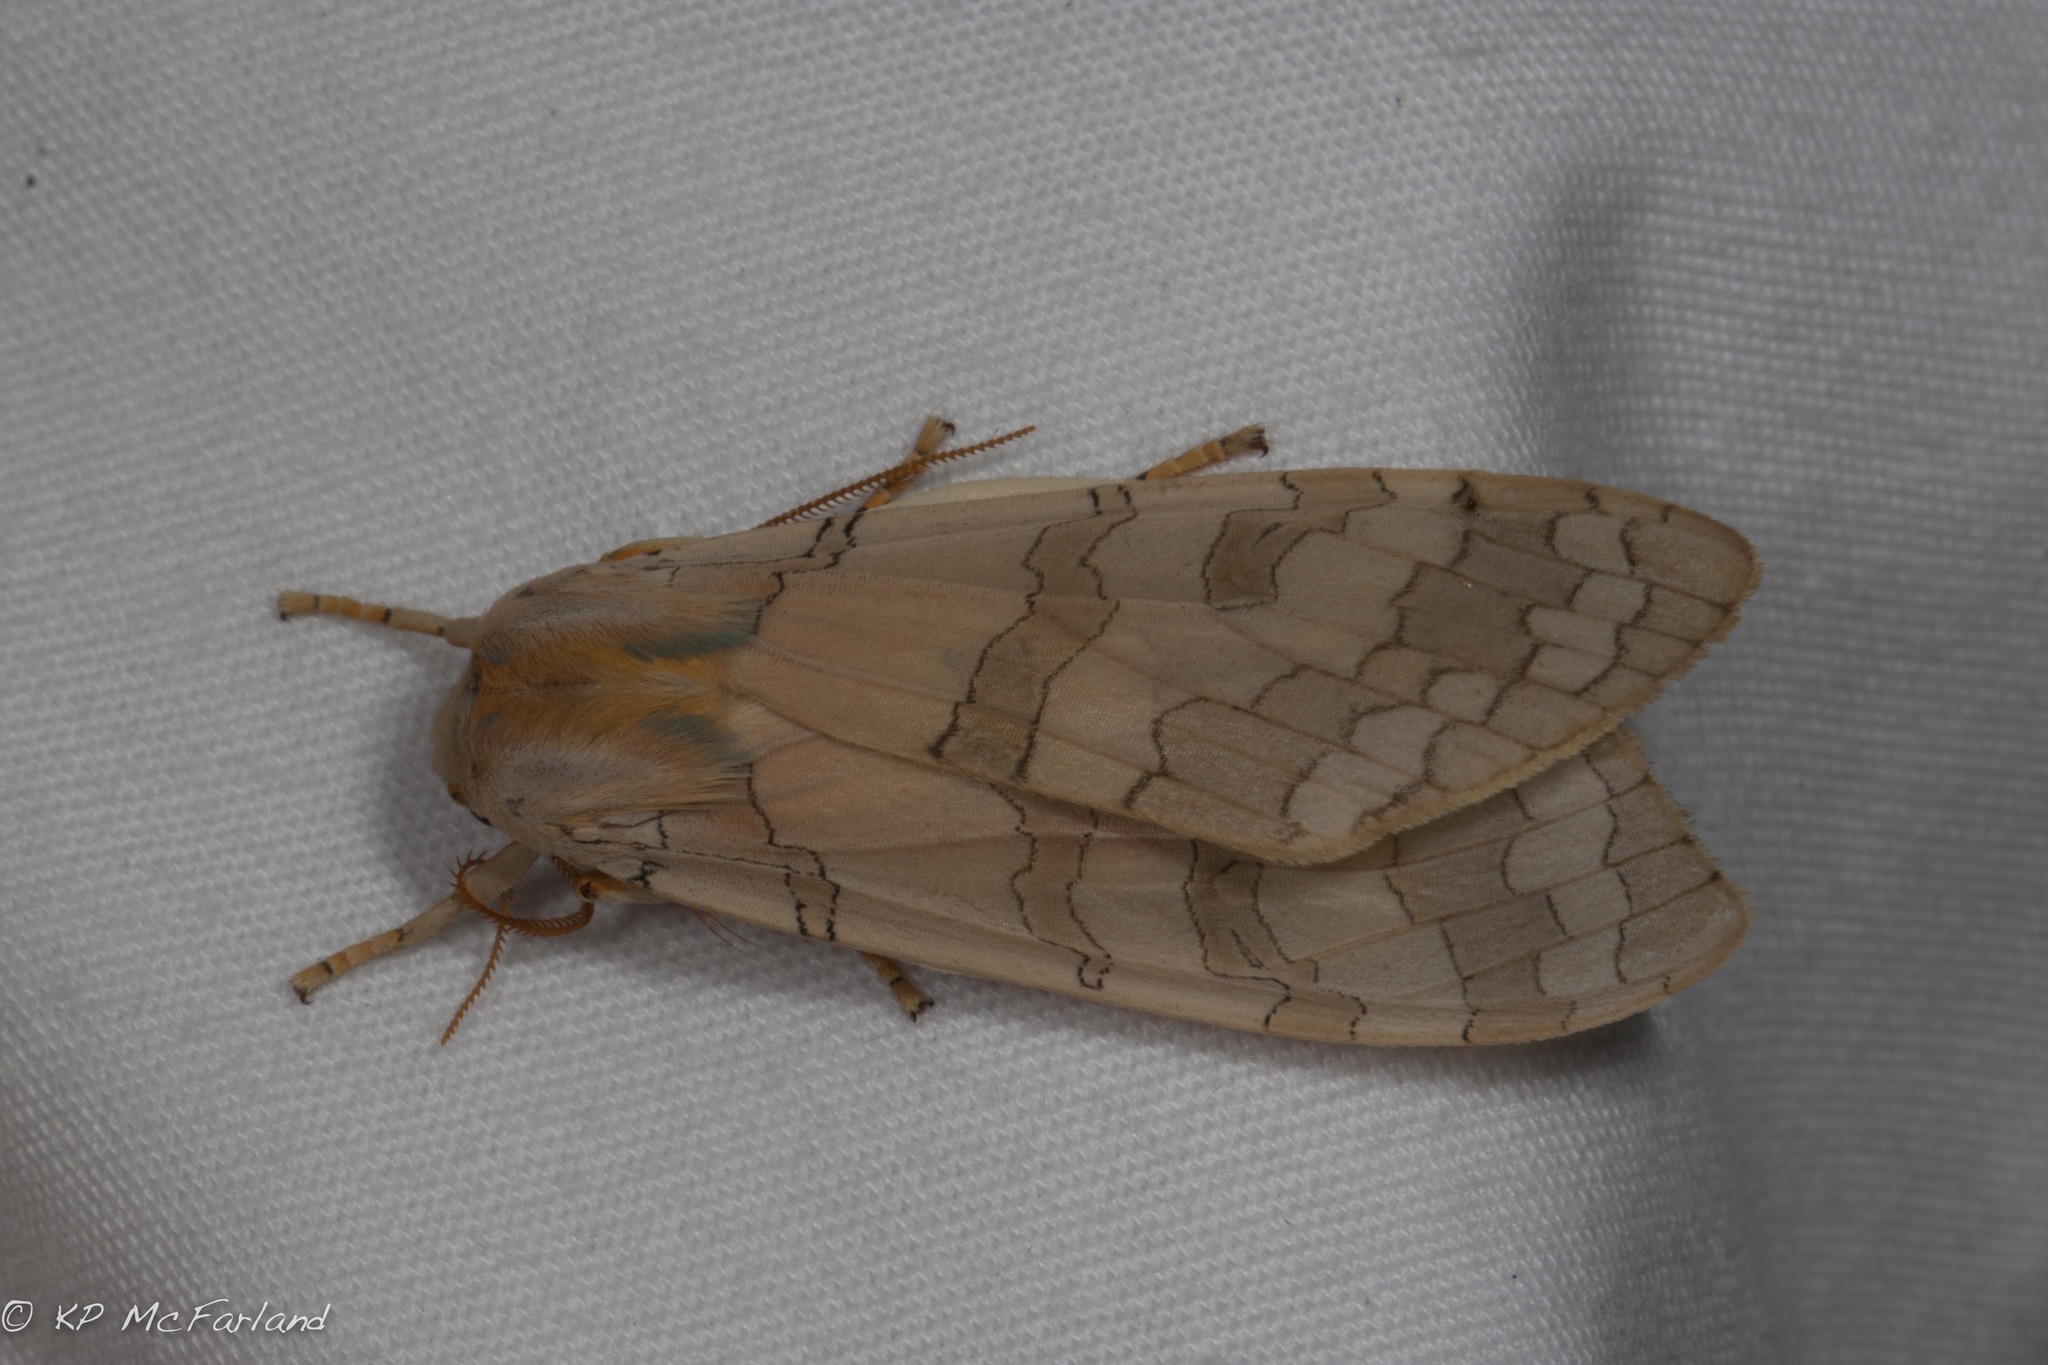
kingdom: Animalia
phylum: Arthropoda
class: Insecta
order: Lepidoptera
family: Erebidae
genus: Halysidota
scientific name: Halysidota
